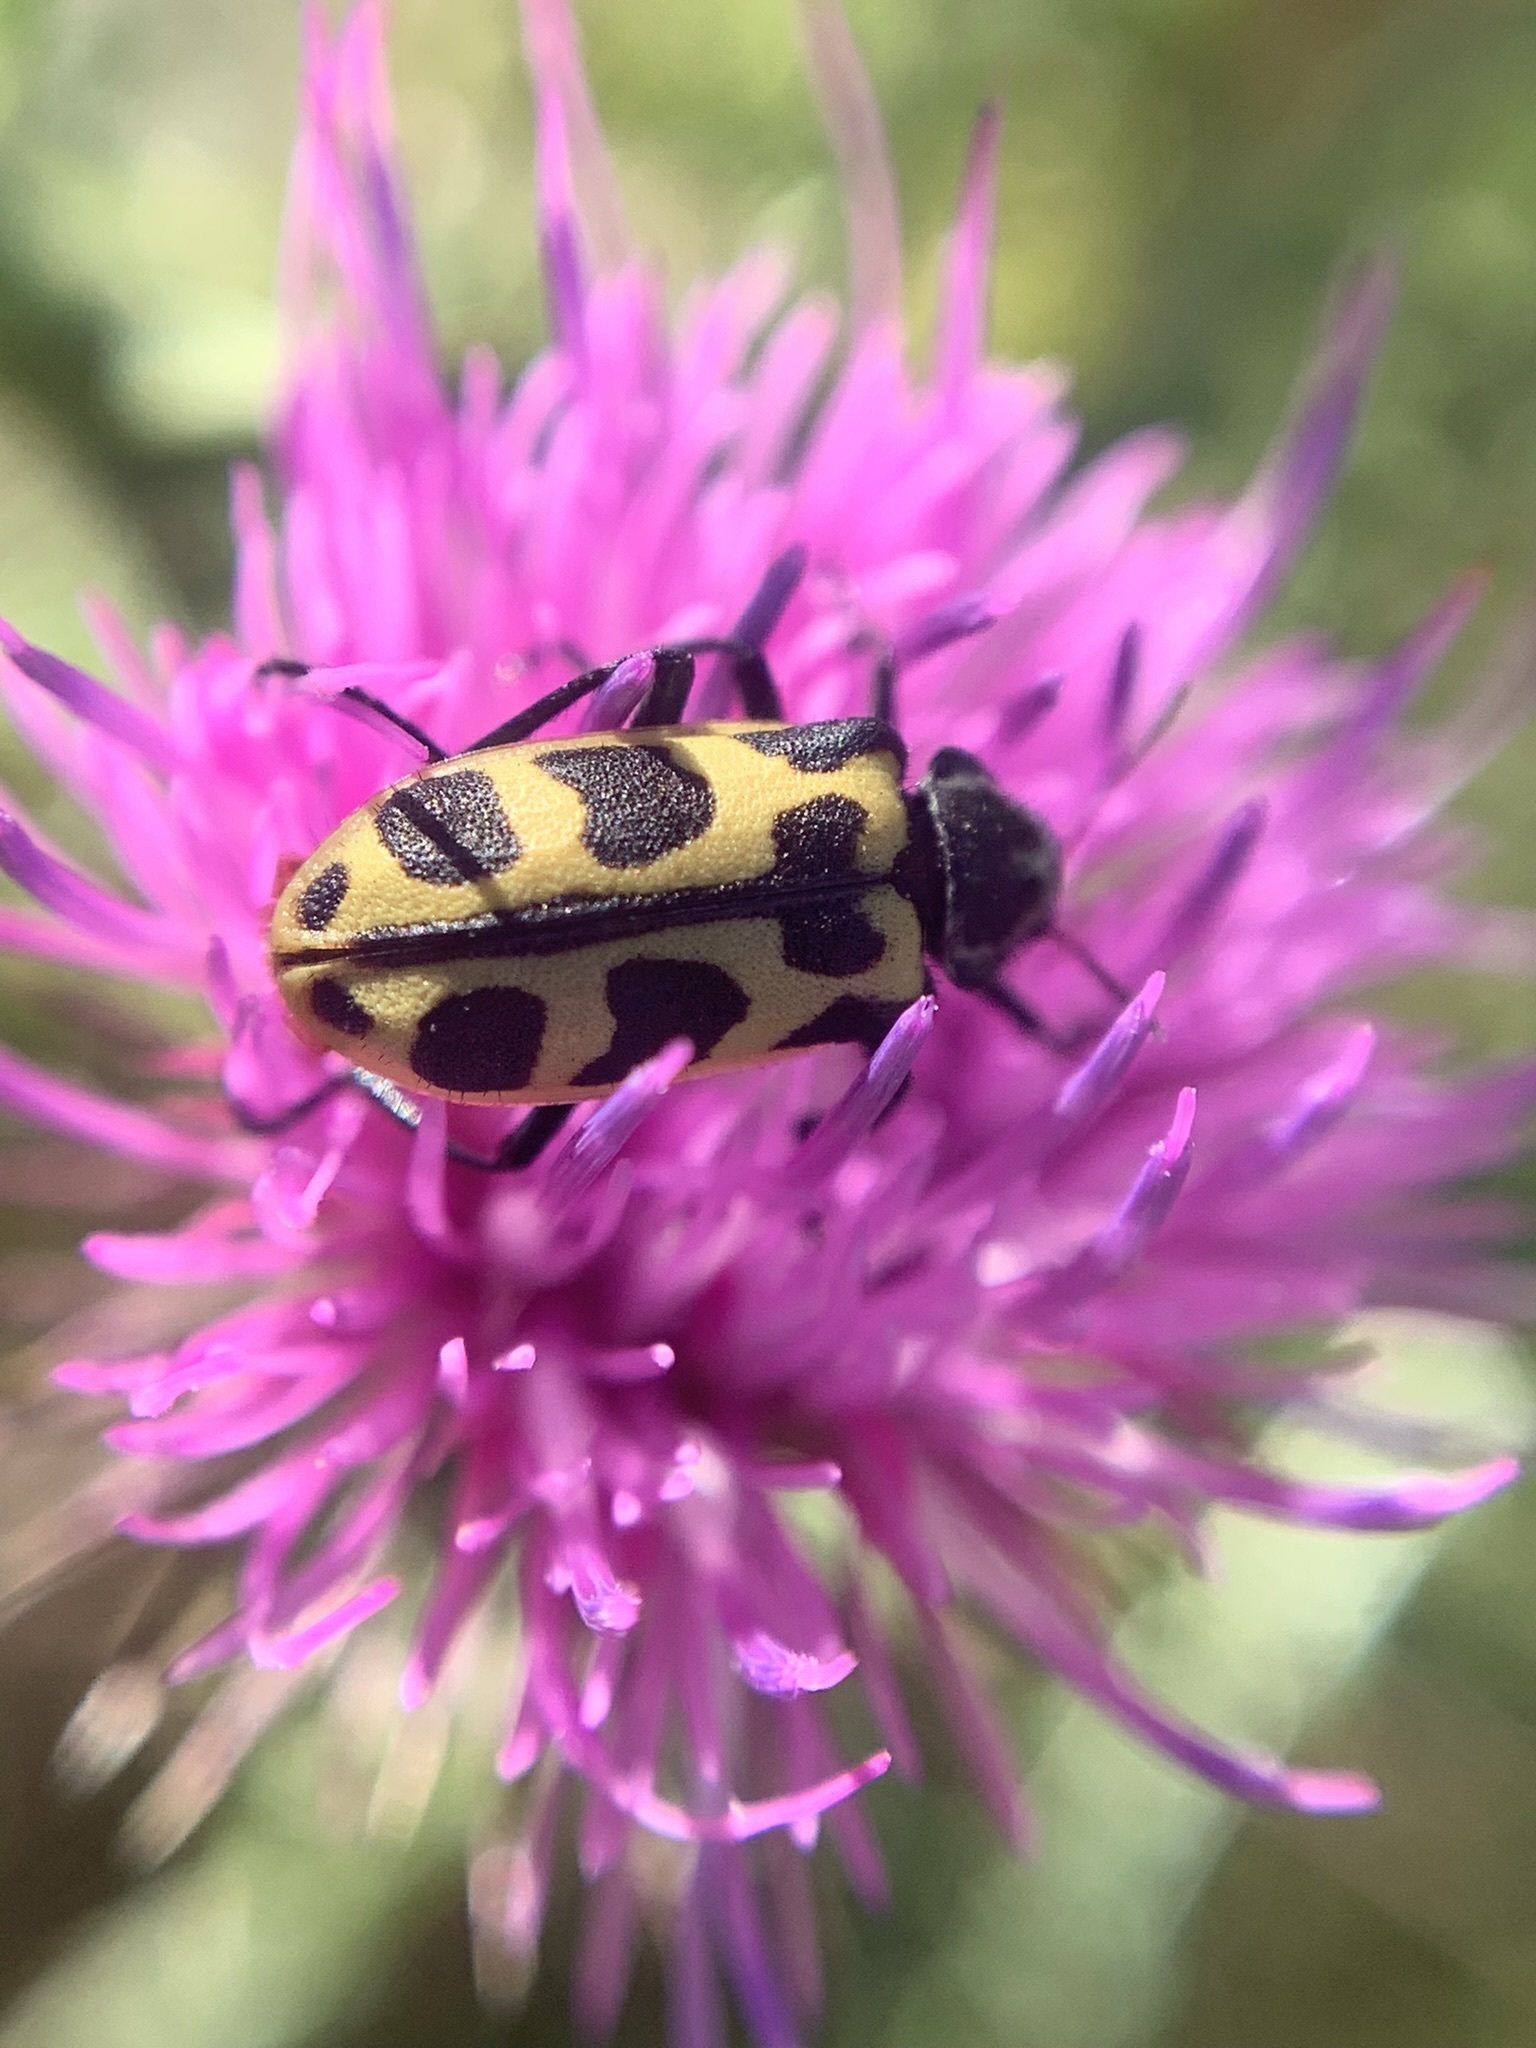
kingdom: Animalia
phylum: Arthropoda
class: Insecta
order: Coleoptera
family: Melyridae
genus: Astylus
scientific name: Astylus atromaculatus
